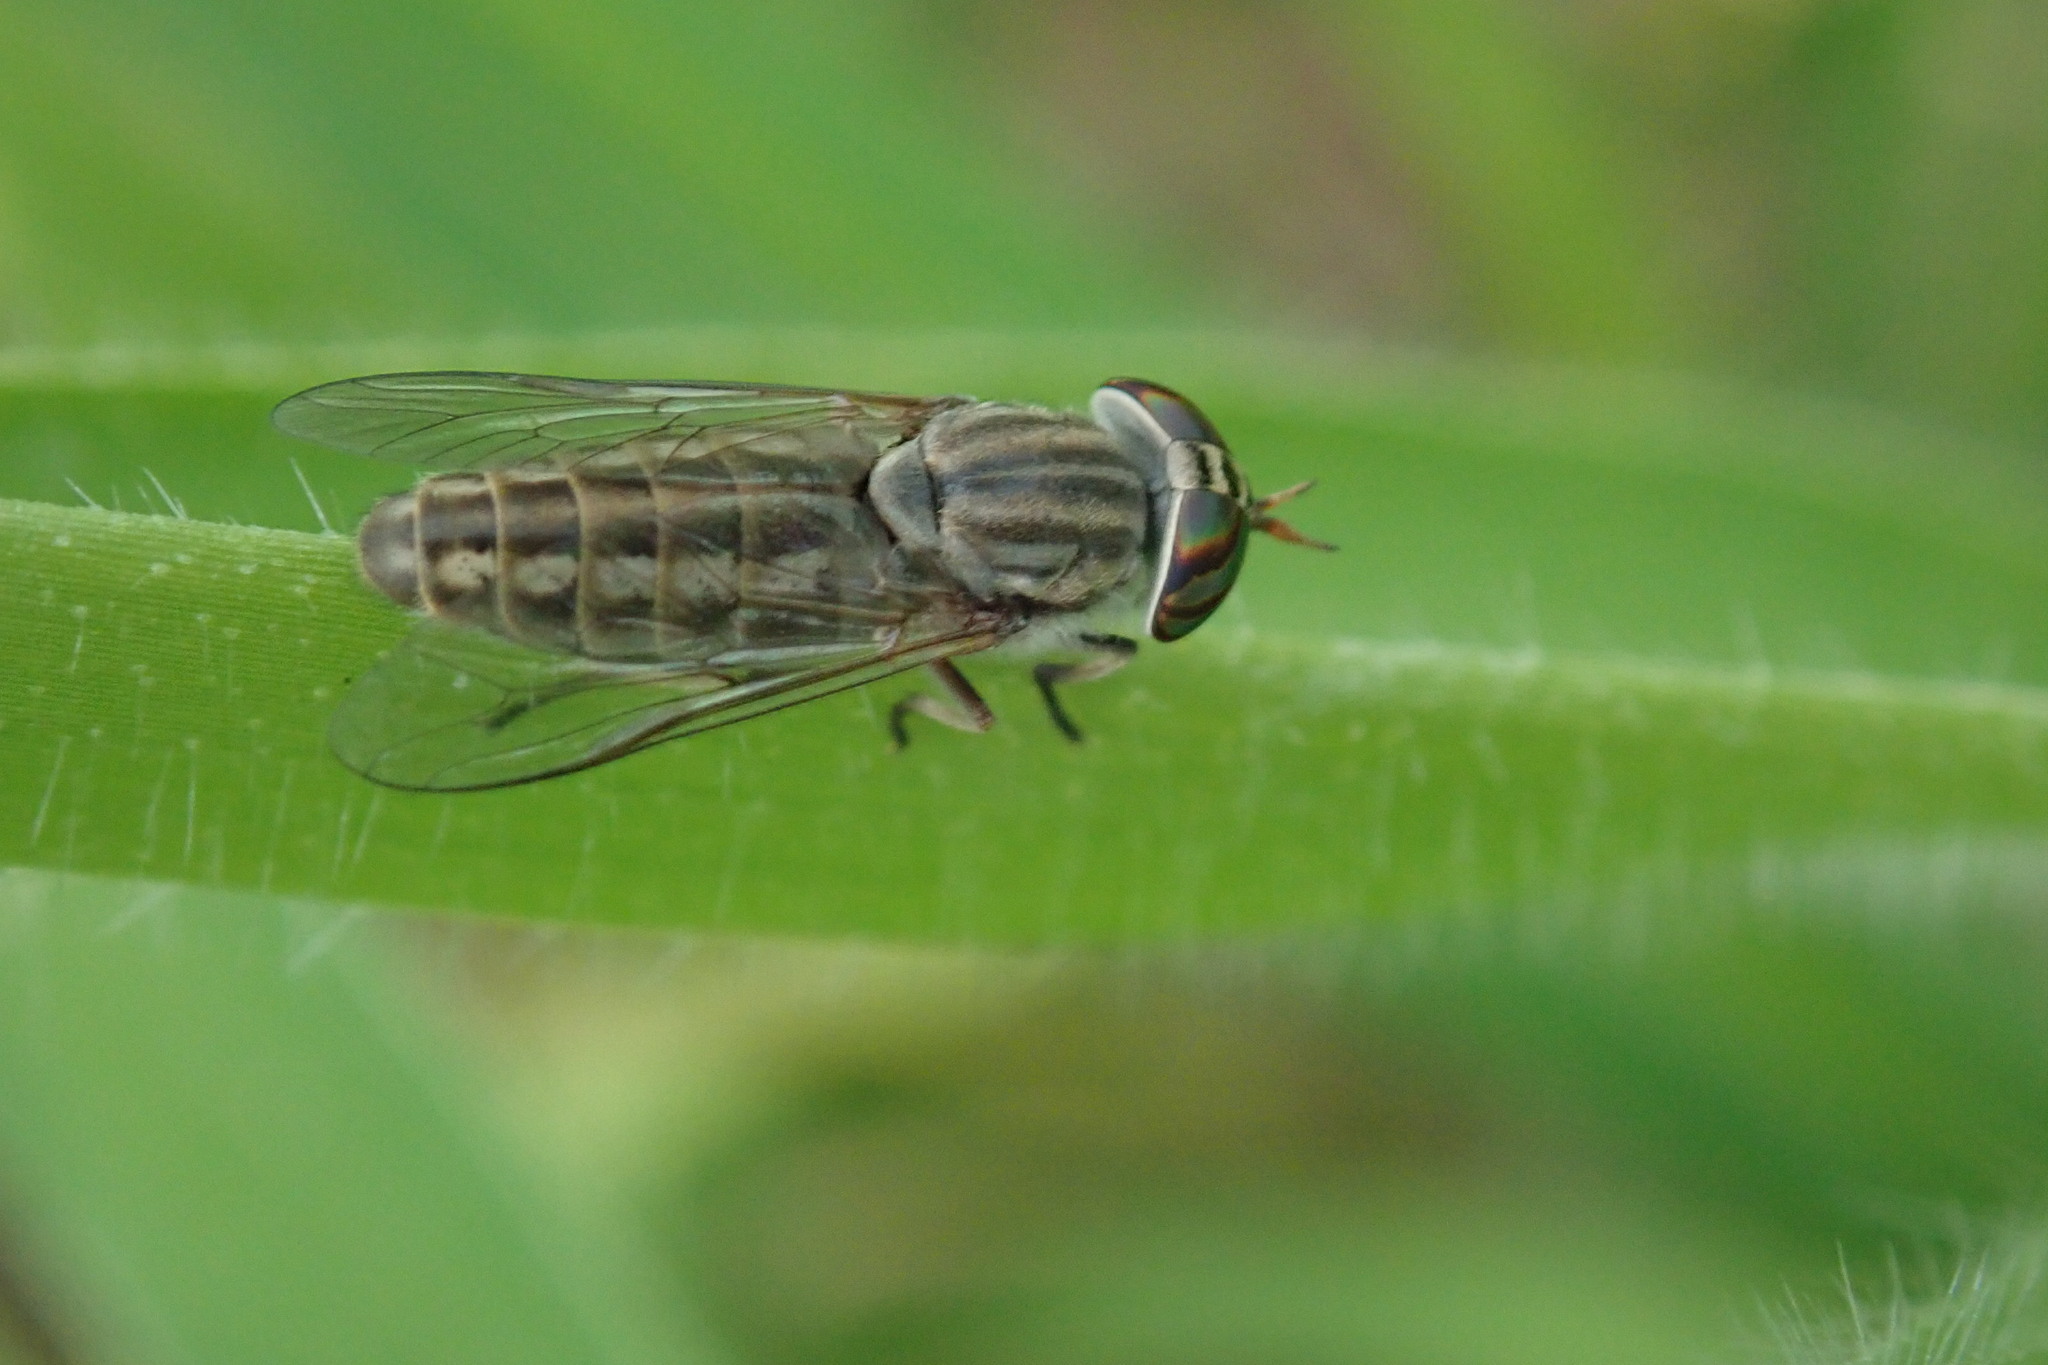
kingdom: Animalia
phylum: Arthropoda
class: Insecta
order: Diptera
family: Tabanidae
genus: Tabanus
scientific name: Tabanus minuscularius
